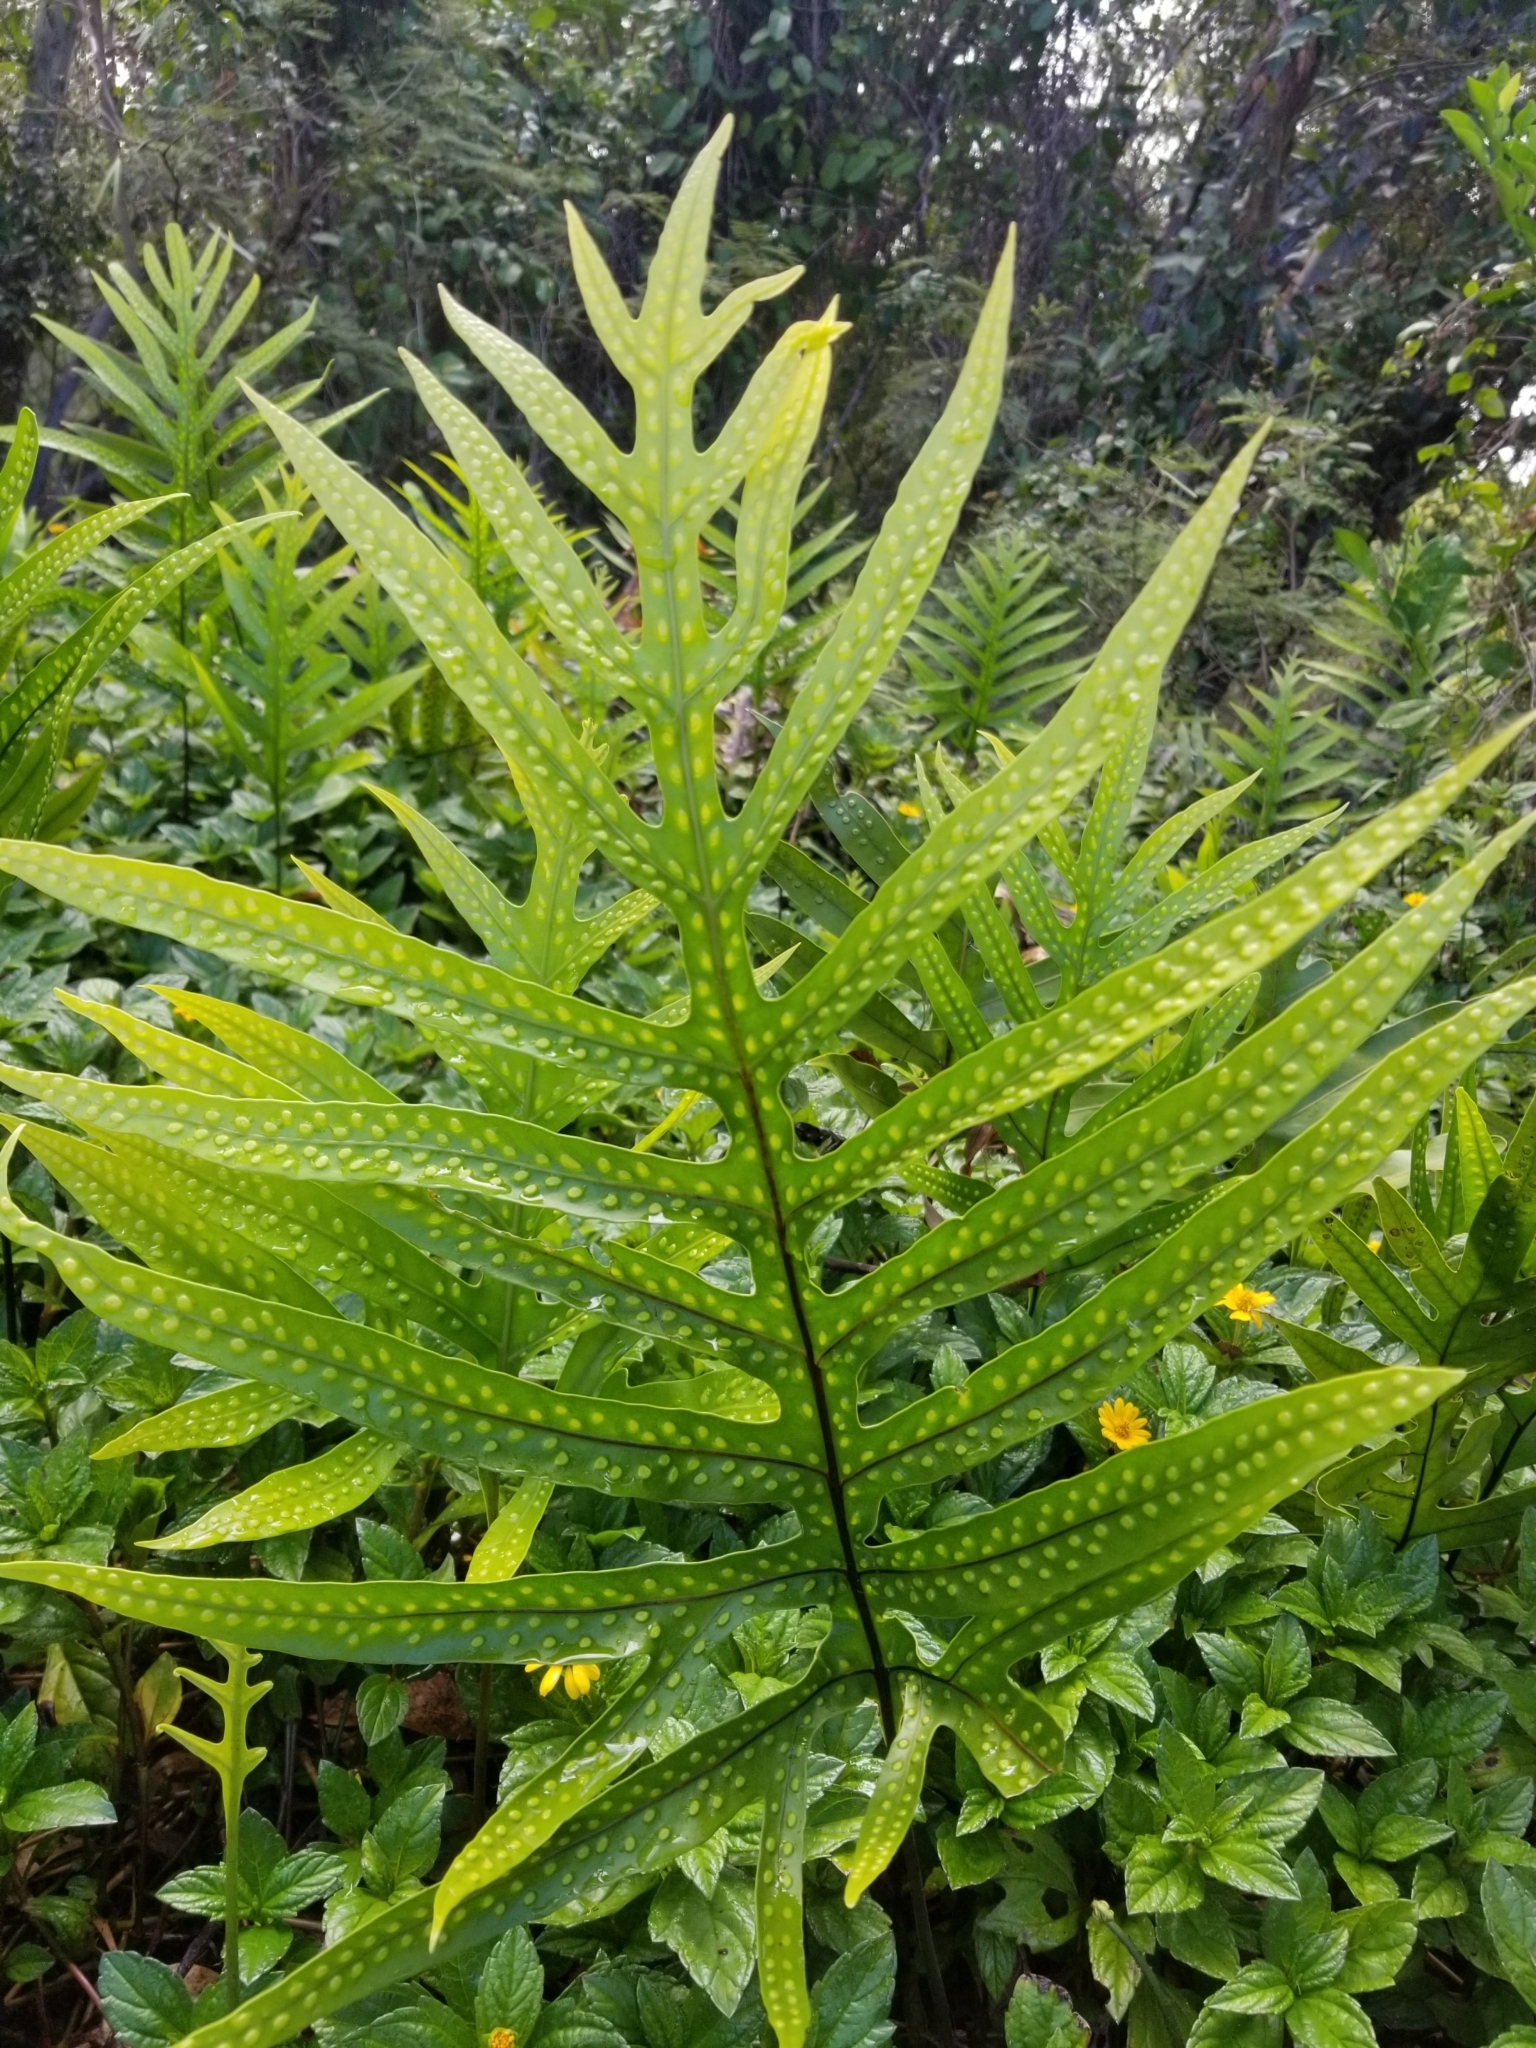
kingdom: Plantae
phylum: Tracheophyta
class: Polypodiopsida
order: Polypodiales
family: Polypodiaceae
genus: Microsorum
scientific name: Microsorum grossum
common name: Musk fern
